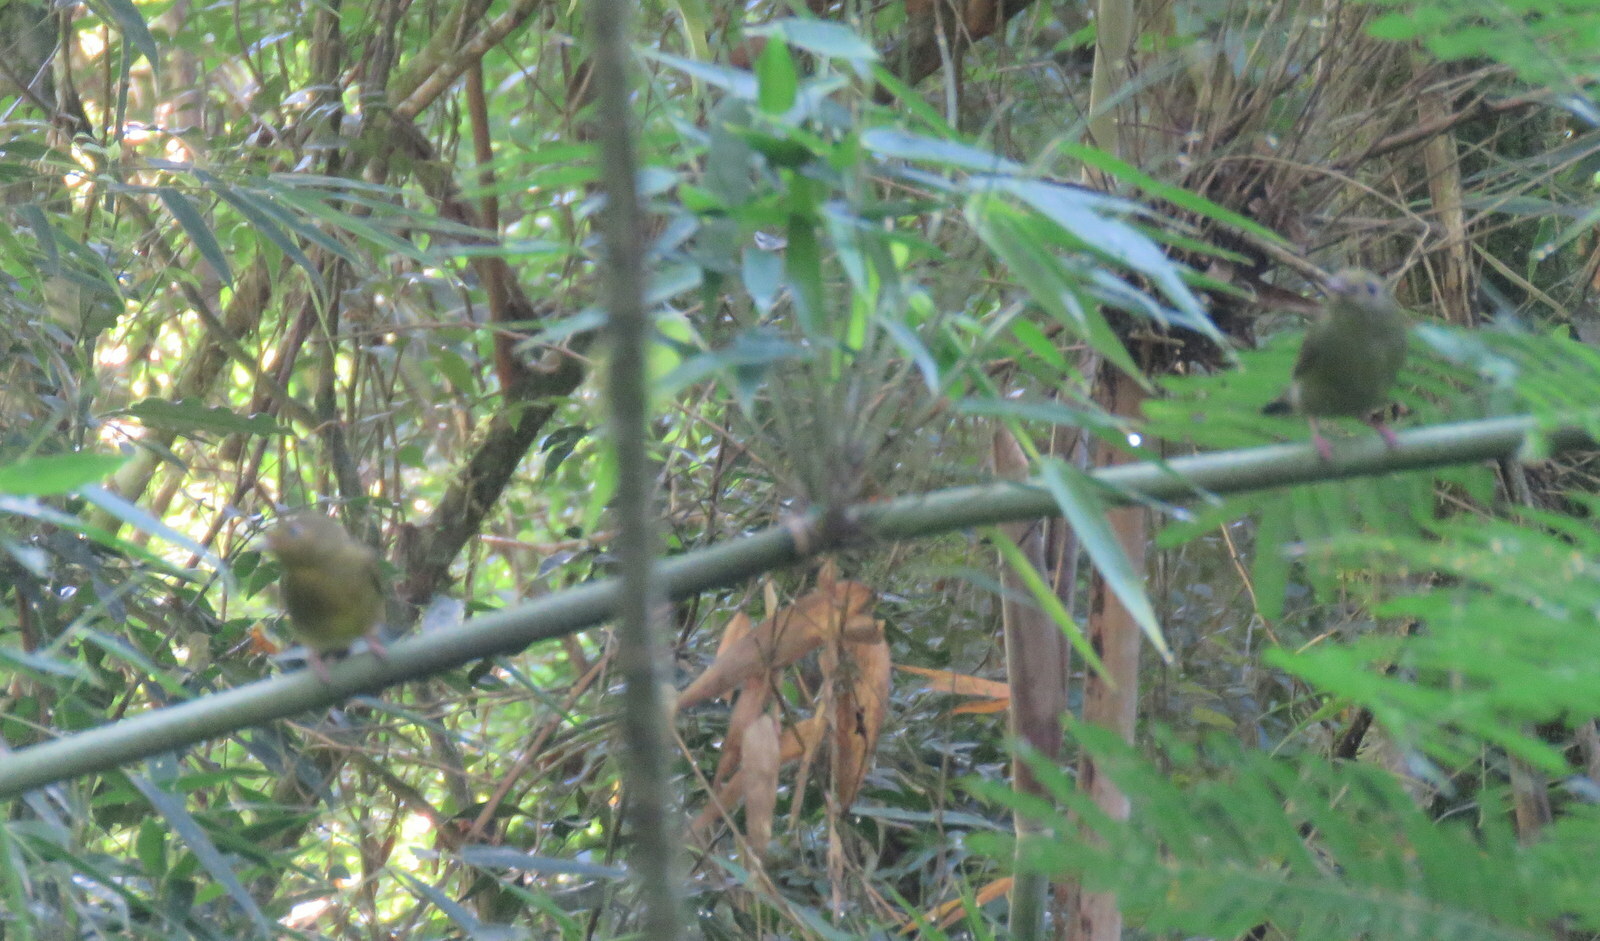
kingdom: Animalia
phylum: Chordata
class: Aves
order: Passeriformes
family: Pipridae
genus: Chiroxiphia
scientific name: Chiroxiphia caudata
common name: Blue manakin
